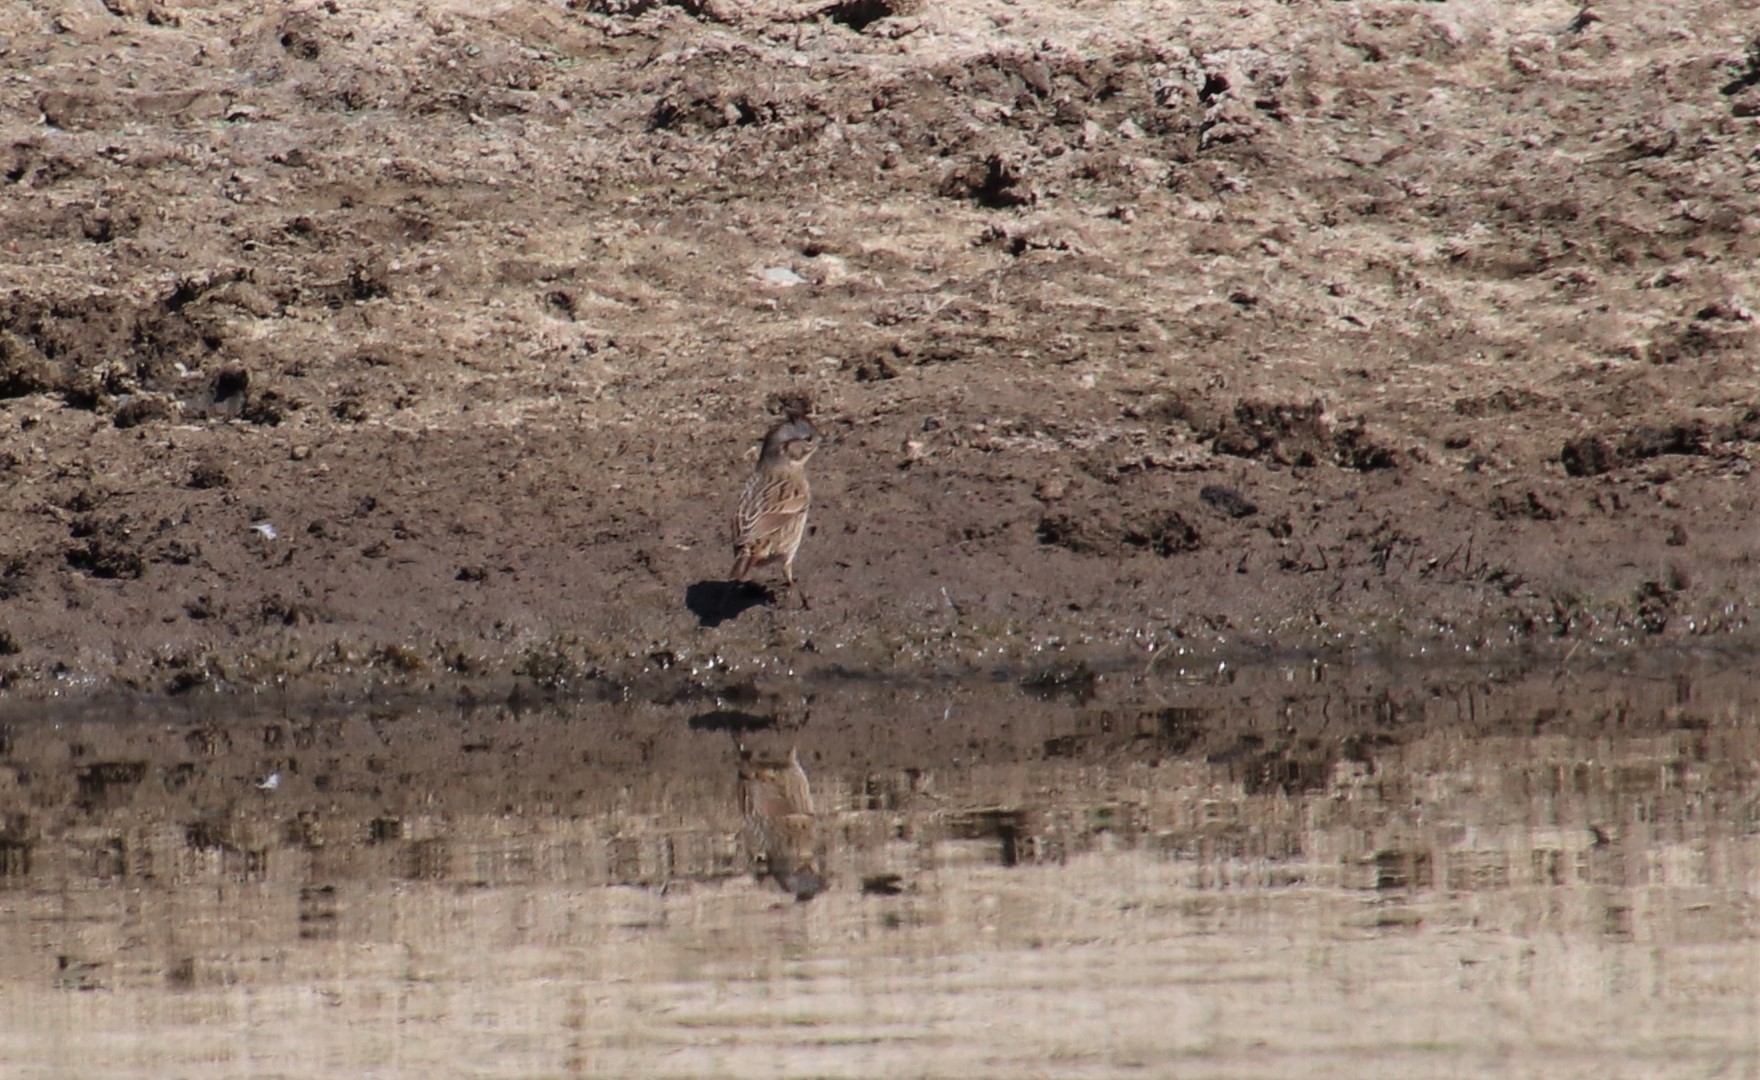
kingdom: Animalia
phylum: Chordata
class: Aves
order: Passeriformes
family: Passerellidae
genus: Melospiza
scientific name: Melospiza melodia
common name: Song sparrow
